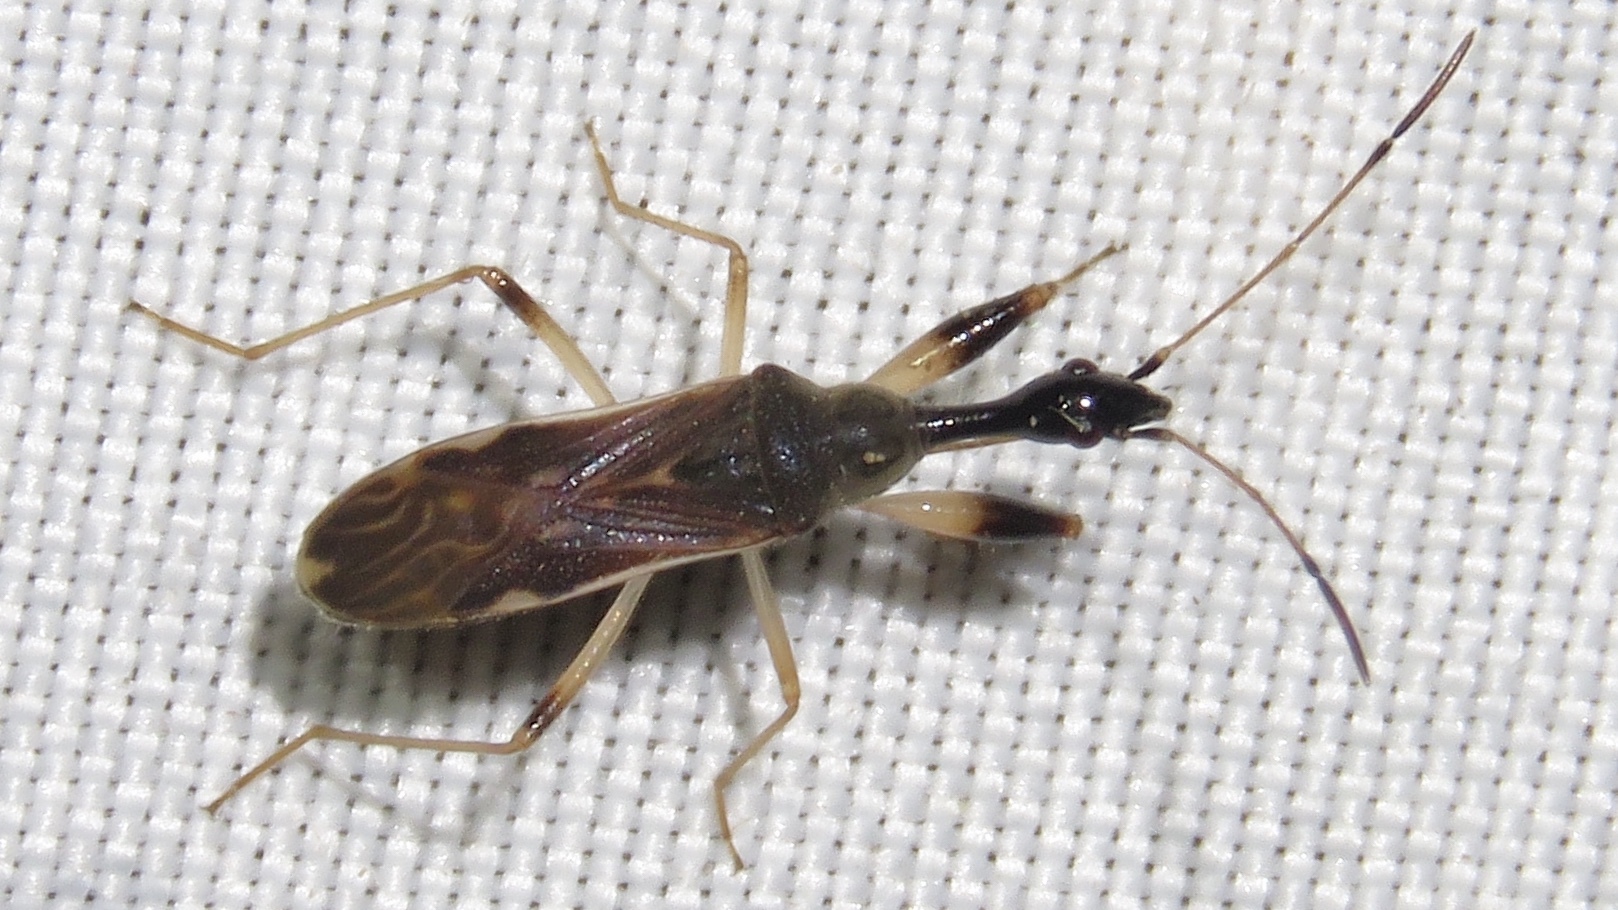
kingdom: Animalia
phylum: Arthropoda
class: Insecta
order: Hemiptera
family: Rhyparochromidae
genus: Myodocha
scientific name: Myodocha serripes
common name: Long-necked seed bug
